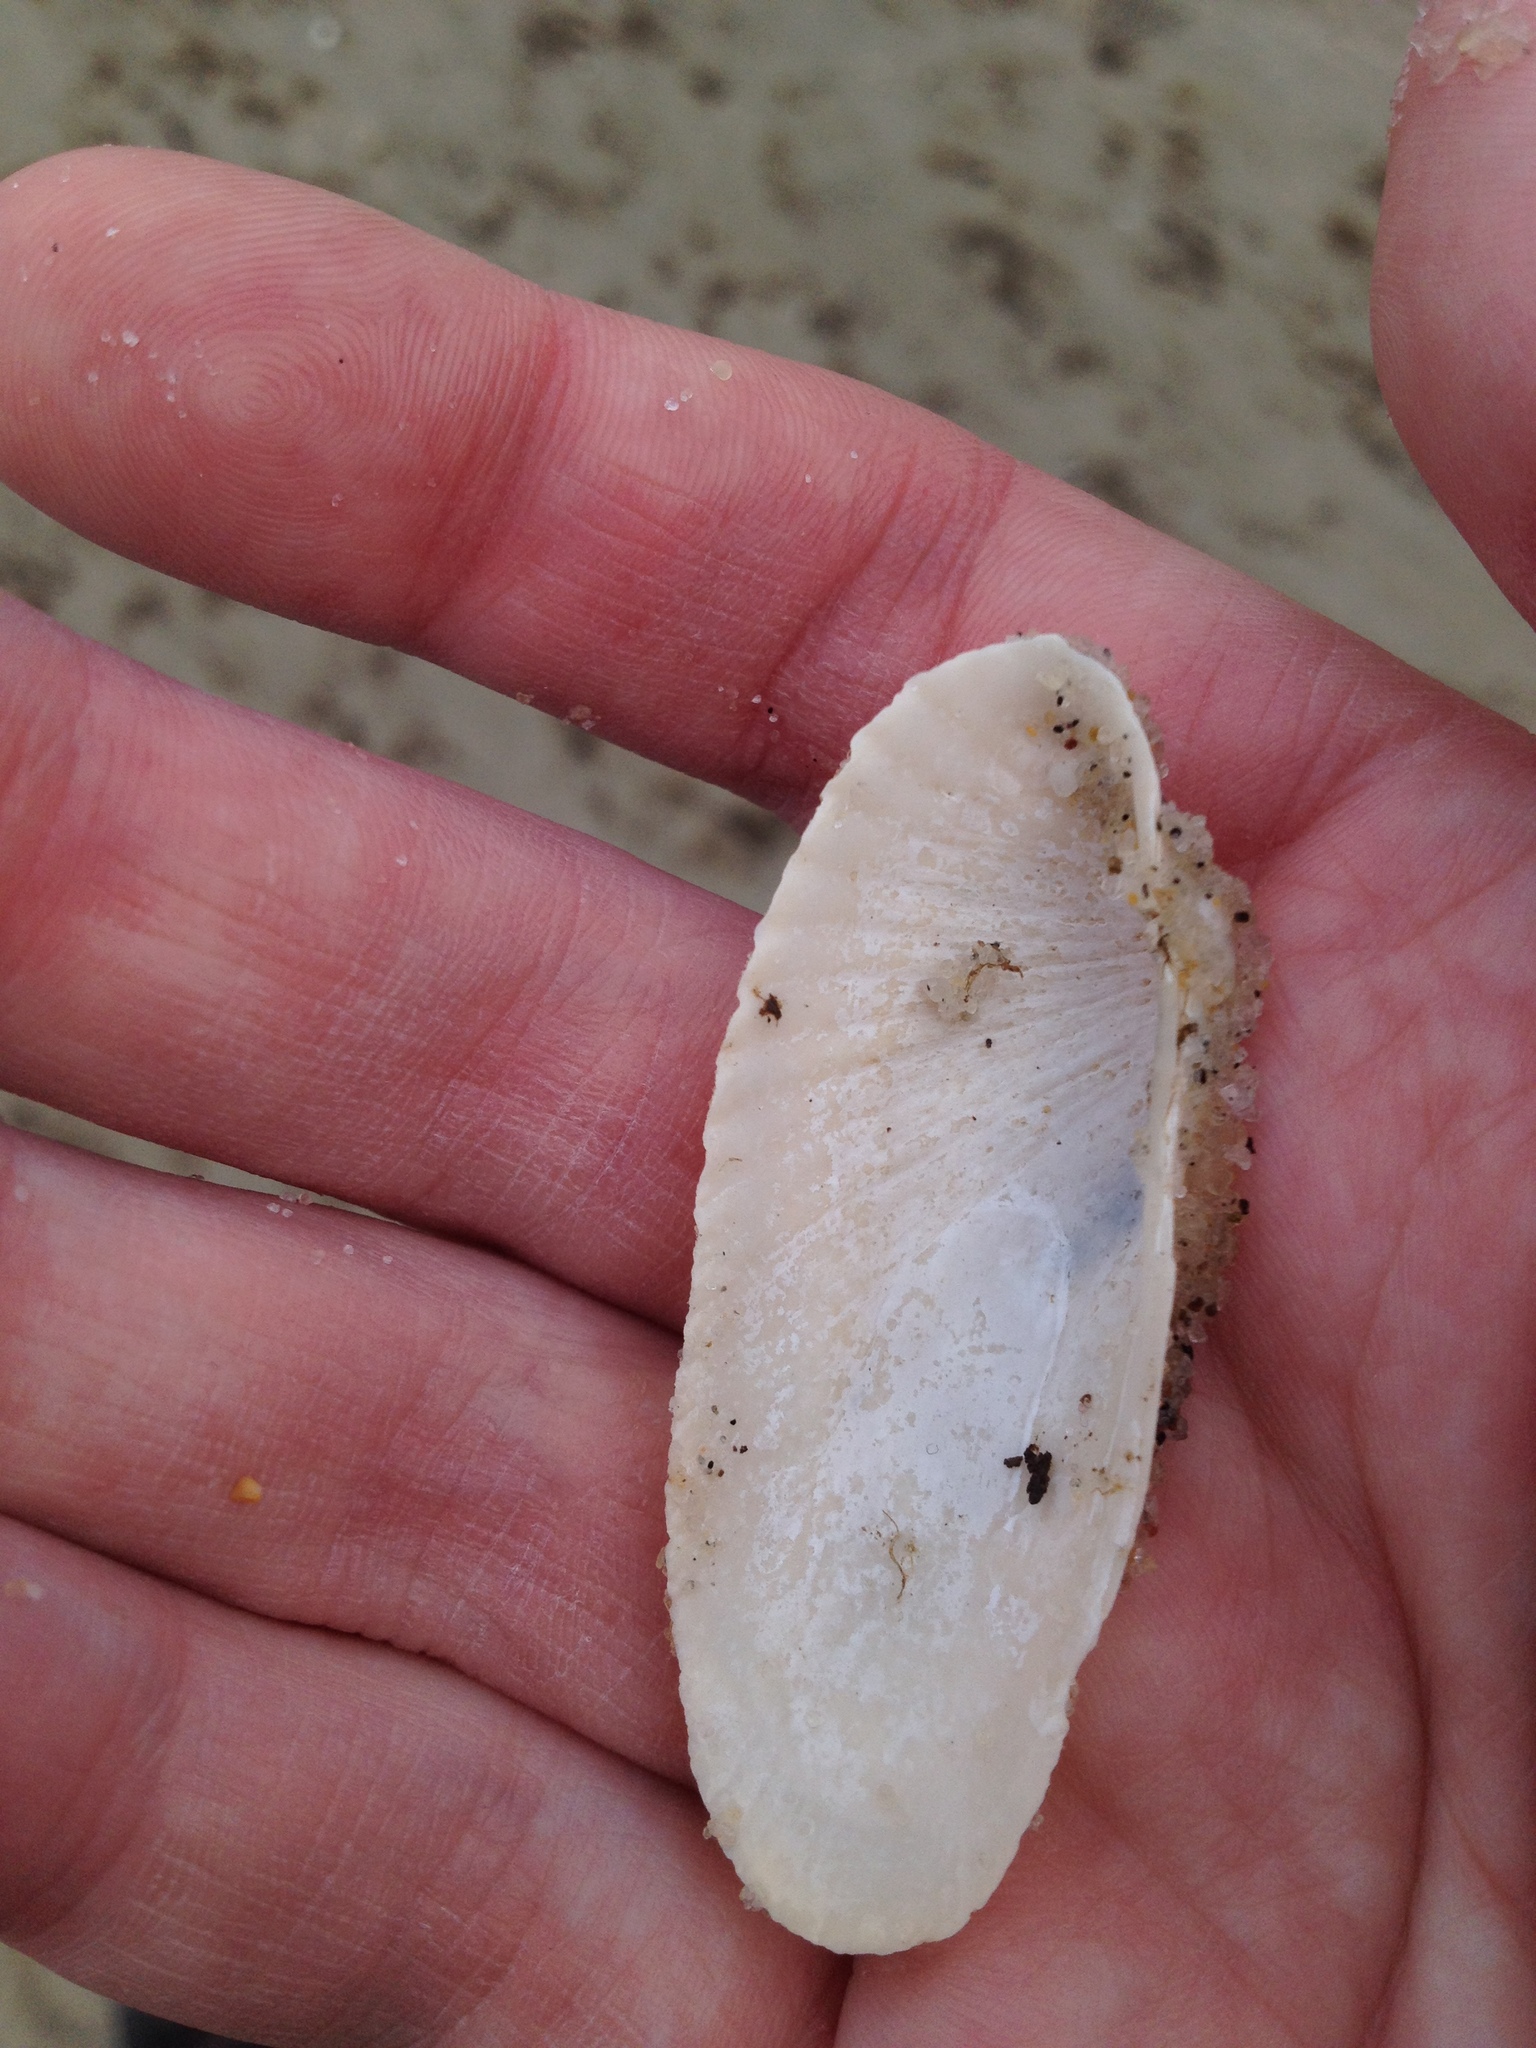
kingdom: Animalia
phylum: Mollusca
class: Bivalvia
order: Venerida
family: Veneridae
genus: Petricolaria
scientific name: Petricolaria pholadiformis
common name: American piddock
